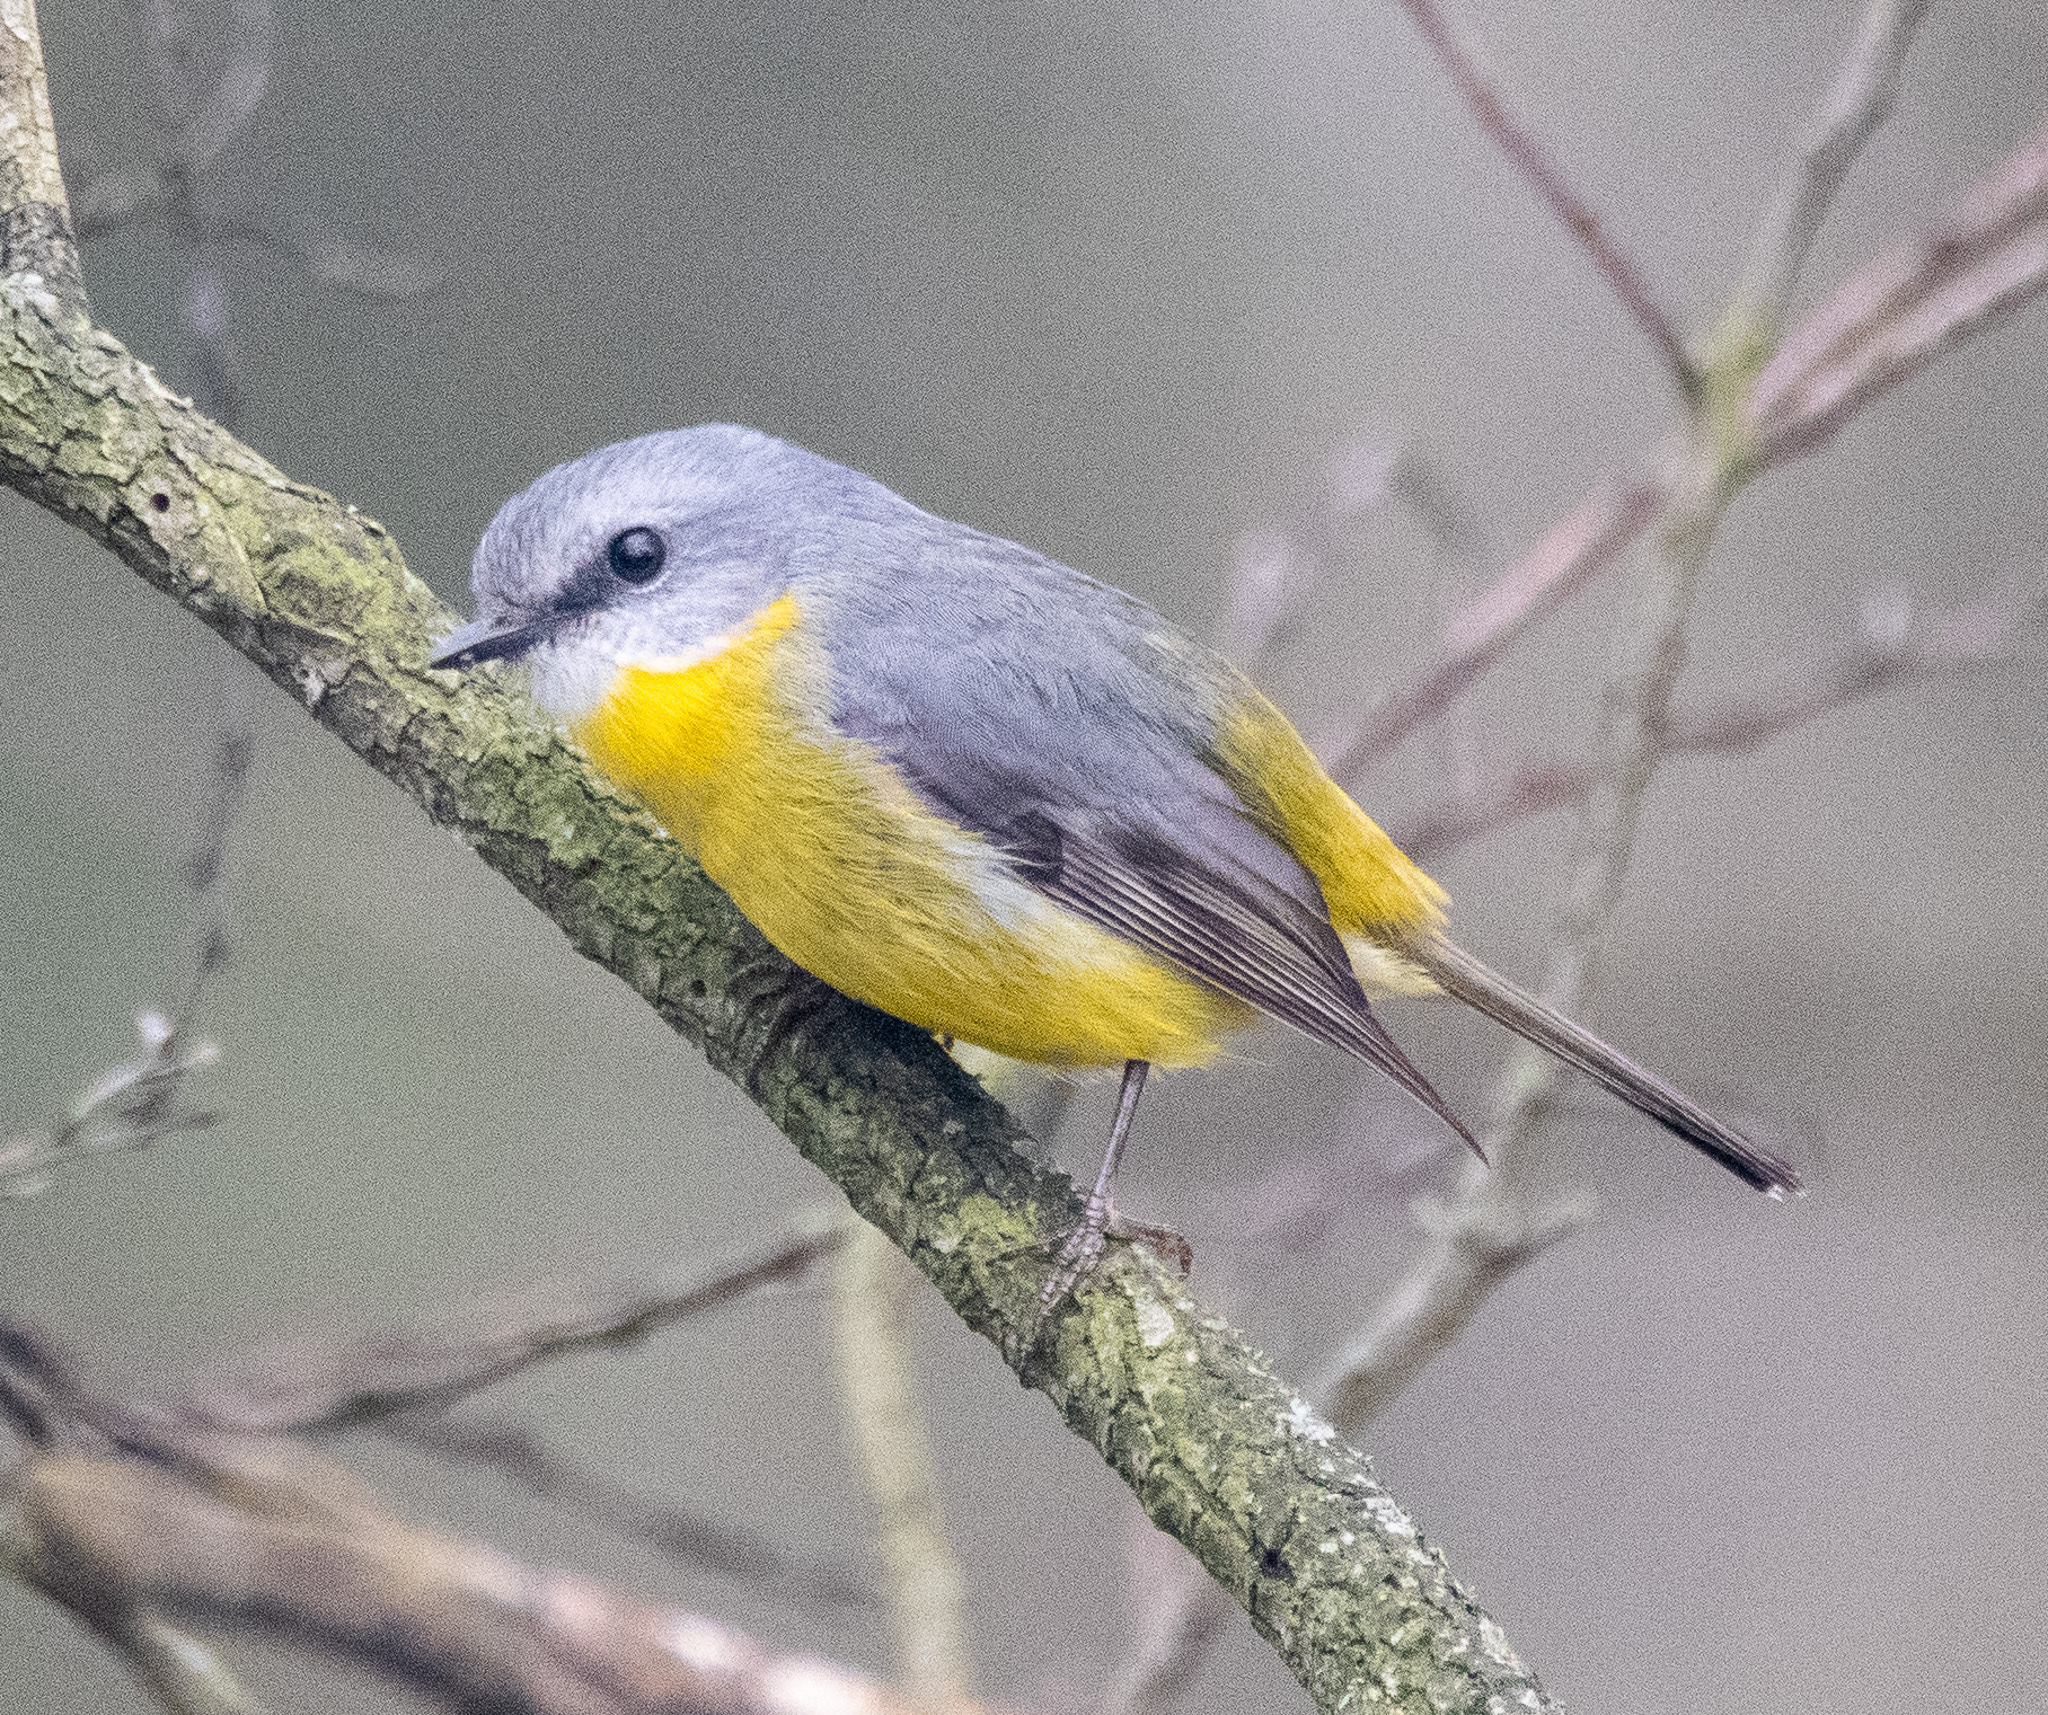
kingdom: Animalia
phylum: Chordata
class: Aves
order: Passeriformes
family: Petroicidae
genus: Eopsaltria
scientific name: Eopsaltria australis
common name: Eastern yellow robin
